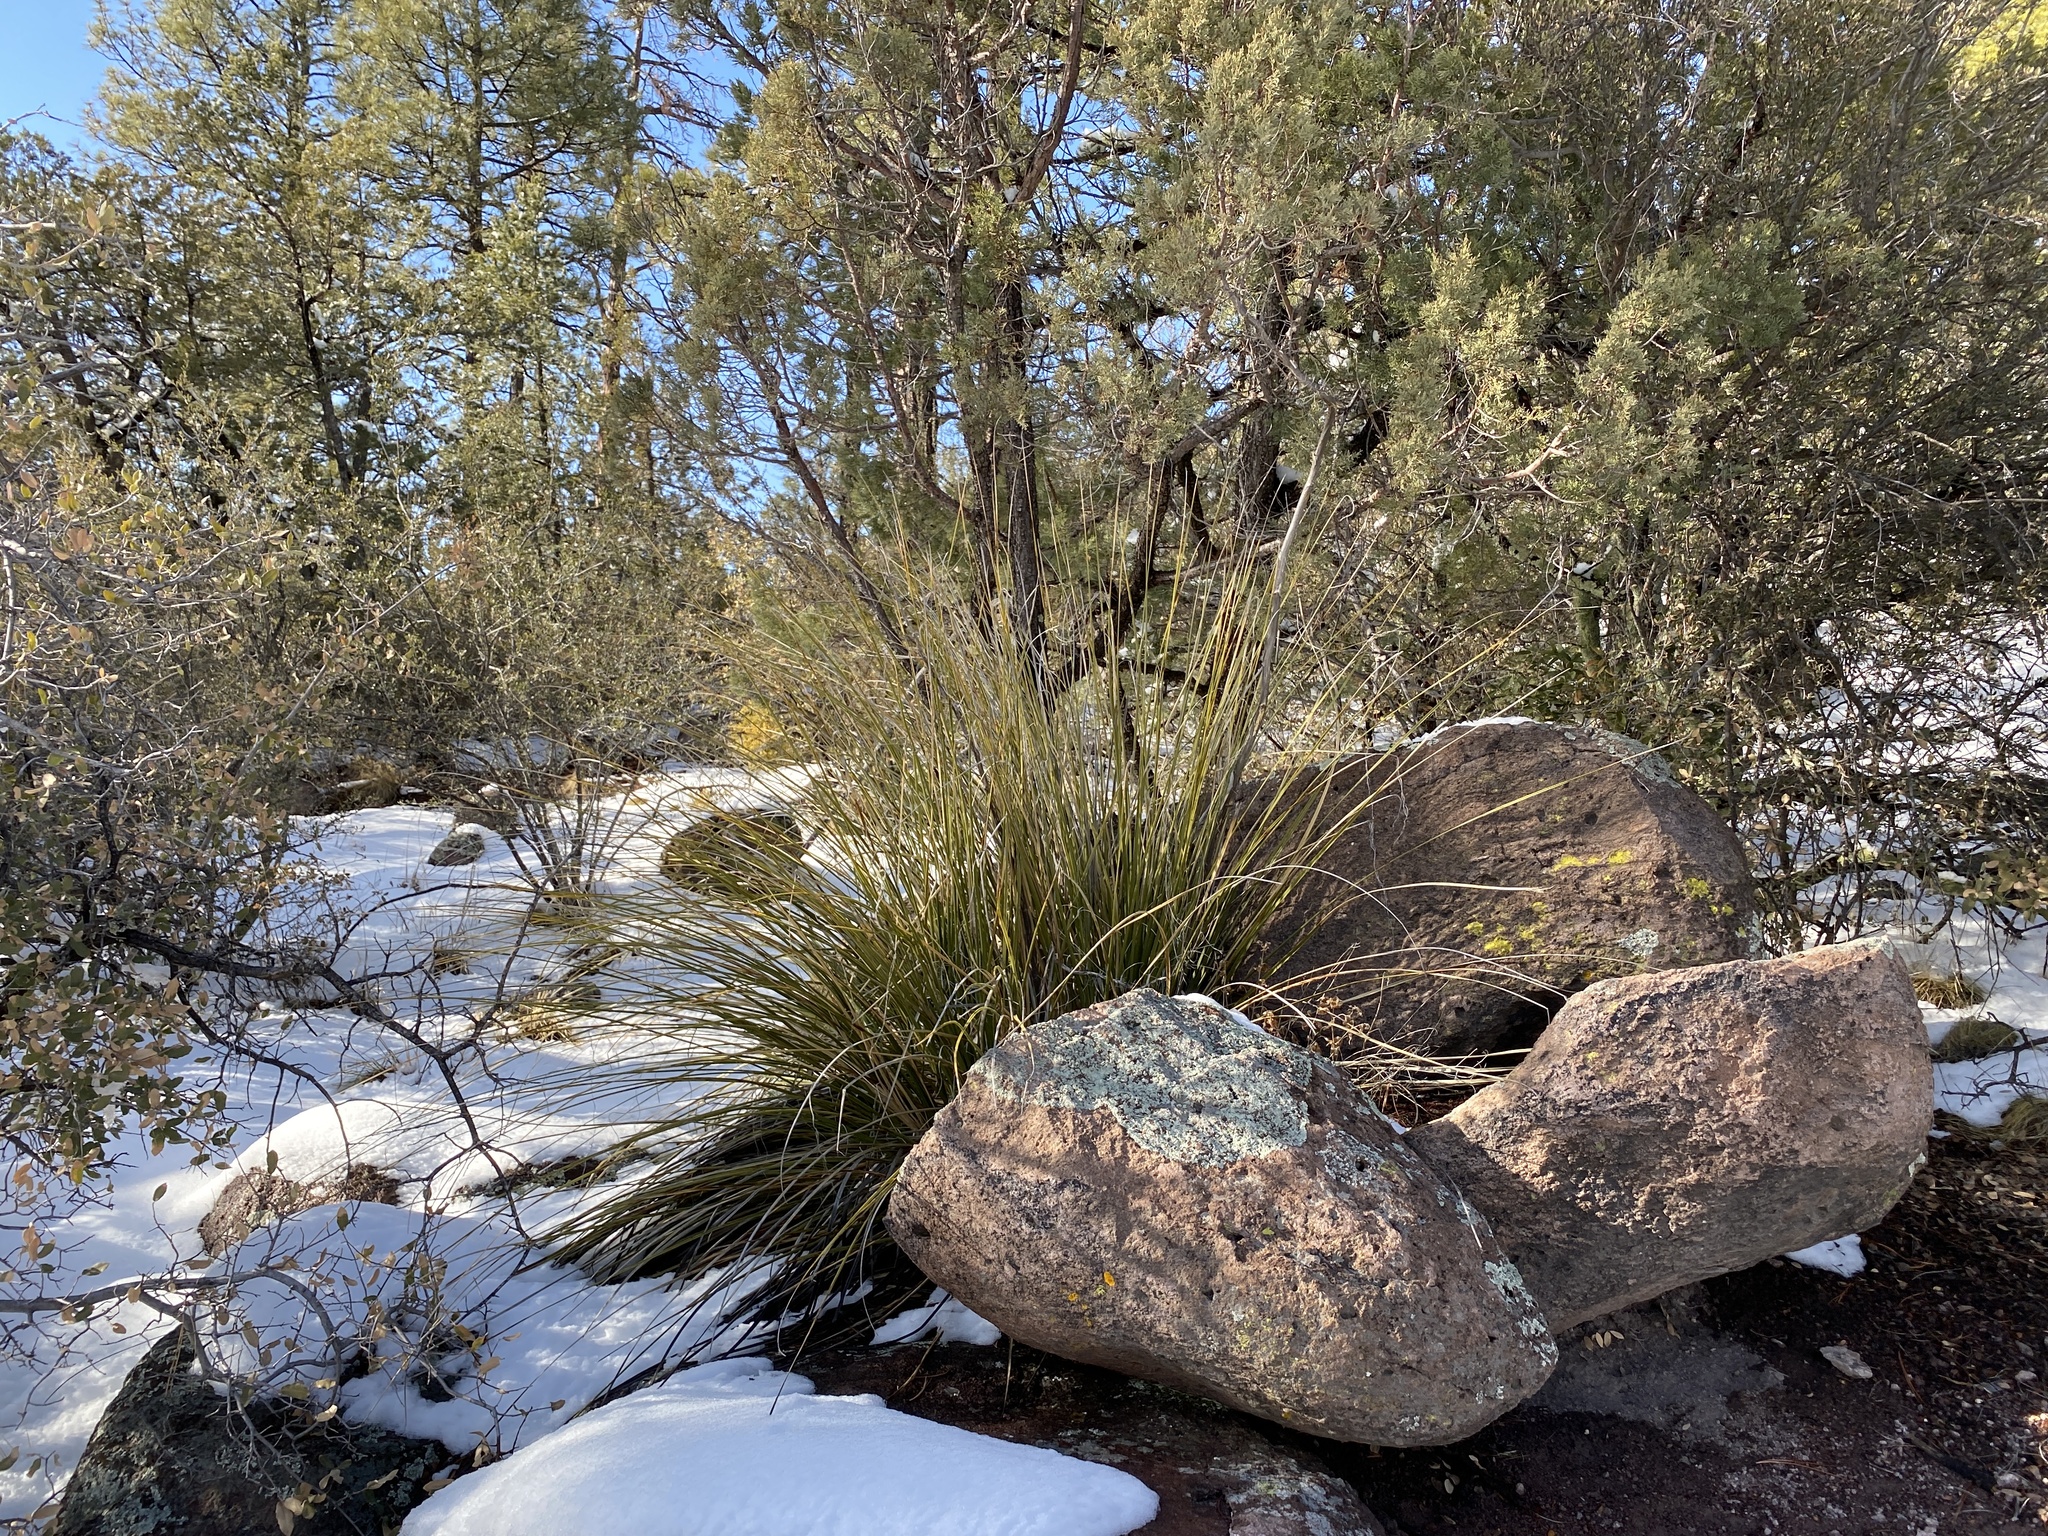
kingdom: Plantae
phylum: Tracheophyta
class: Liliopsida
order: Asparagales
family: Asparagaceae
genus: Nolina
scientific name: Nolina microcarpa
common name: Bear-grass
